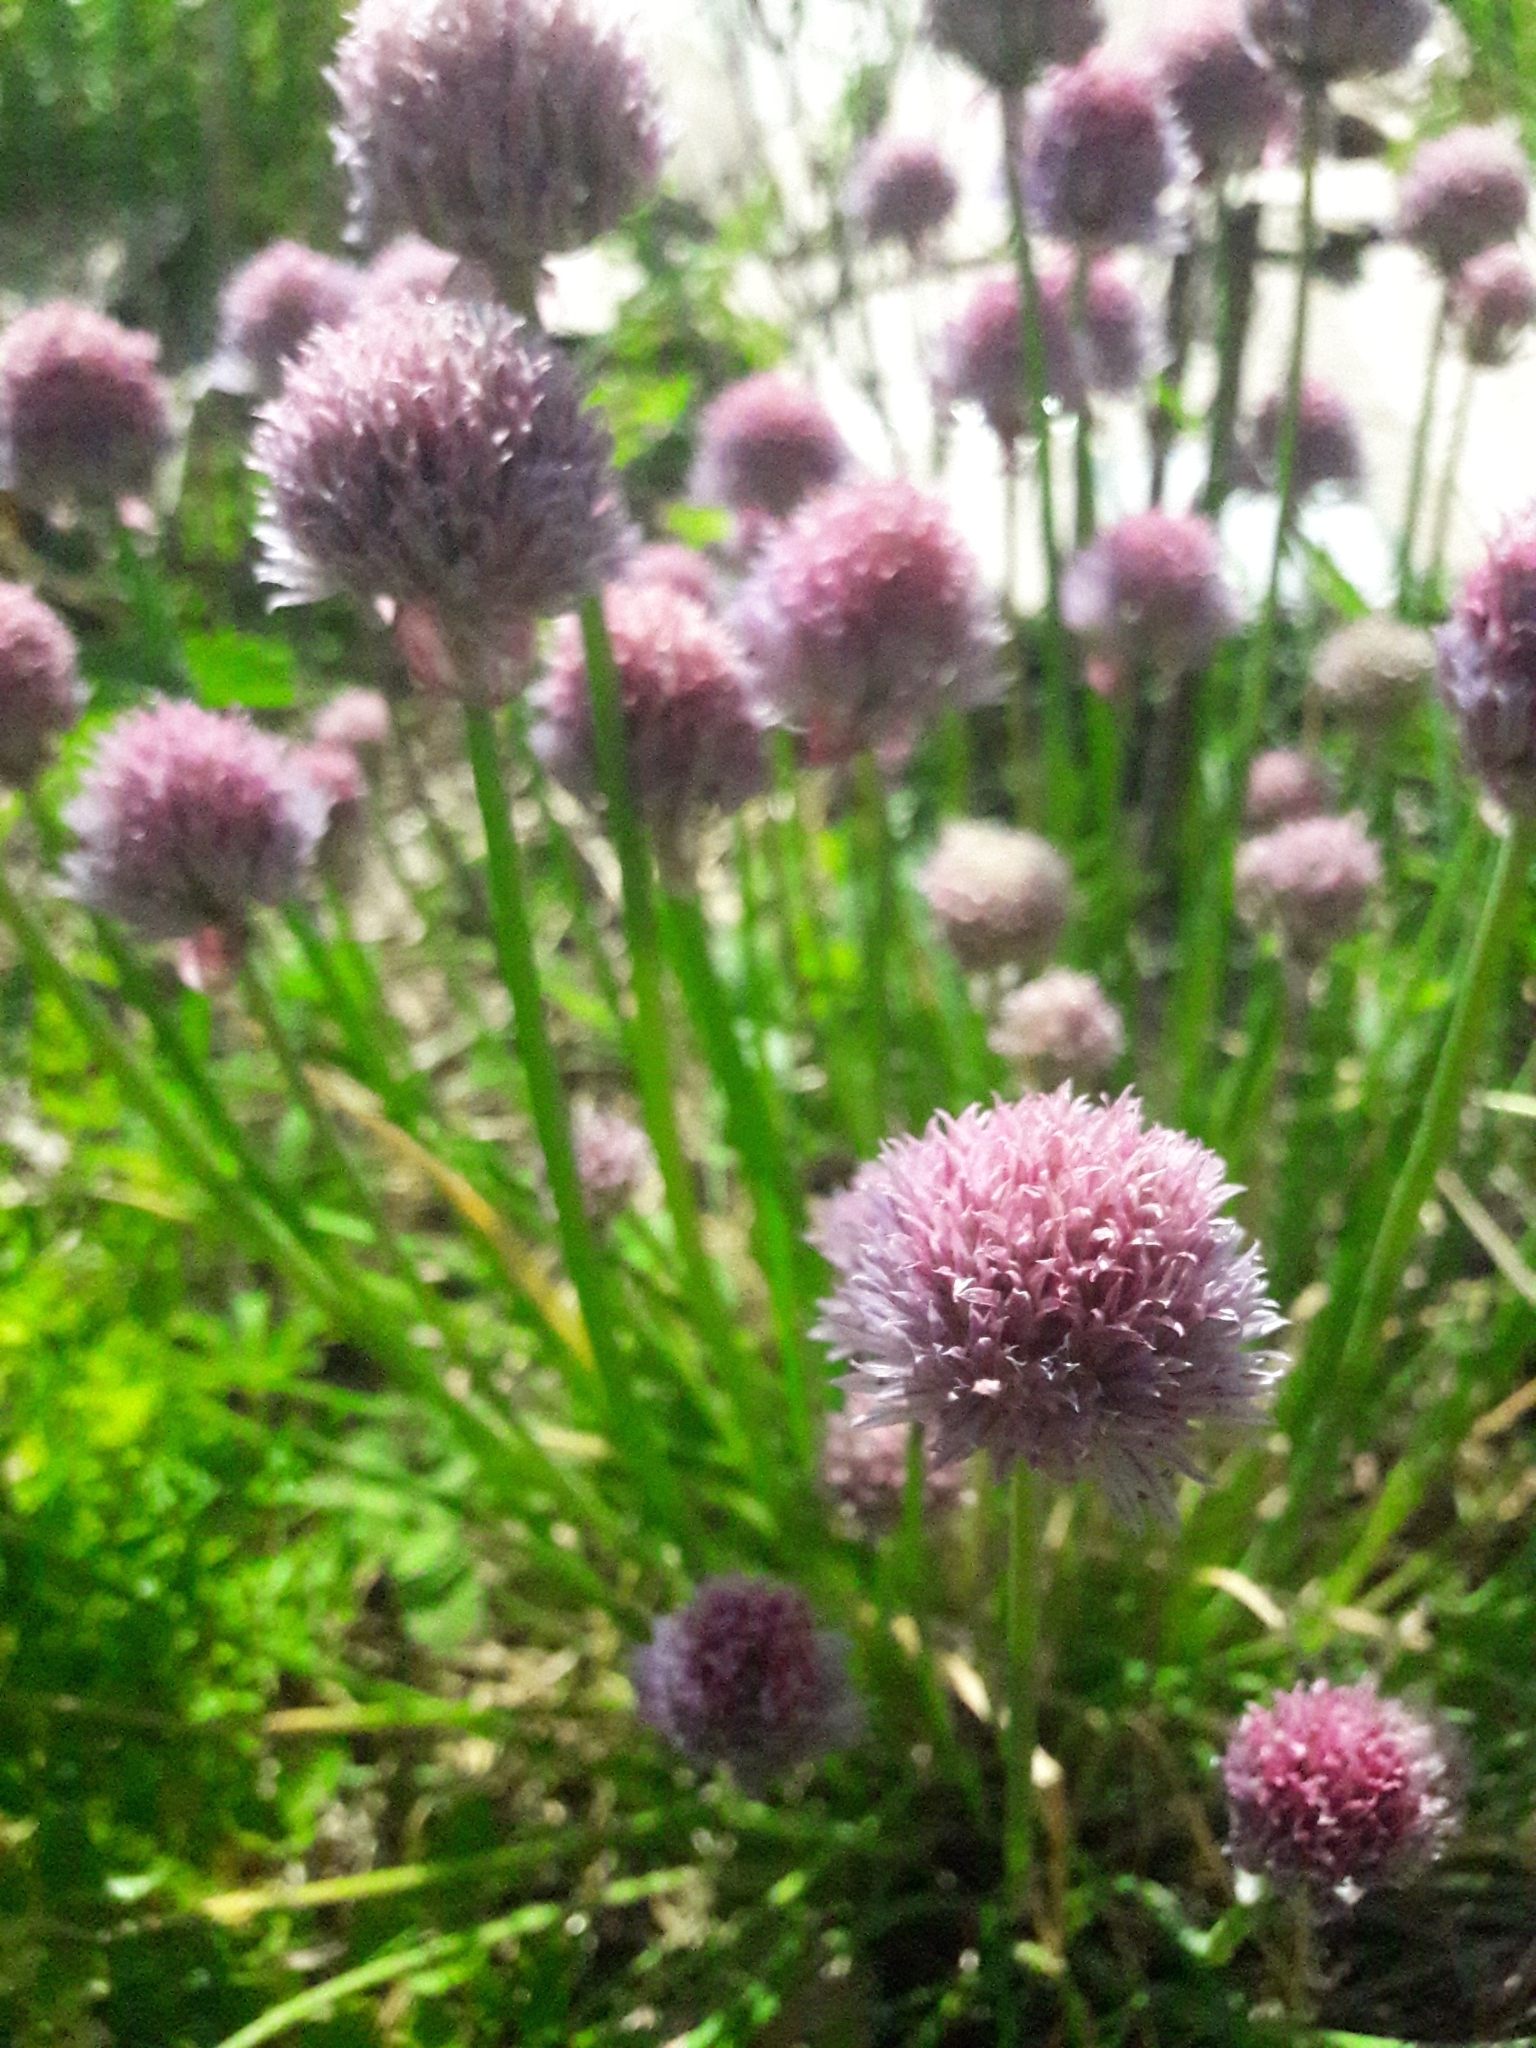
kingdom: Plantae
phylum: Tracheophyta
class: Liliopsida
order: Asparagales
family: Amaryllidaceae
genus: Allium
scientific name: Allium schoenoprasum
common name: Chives
